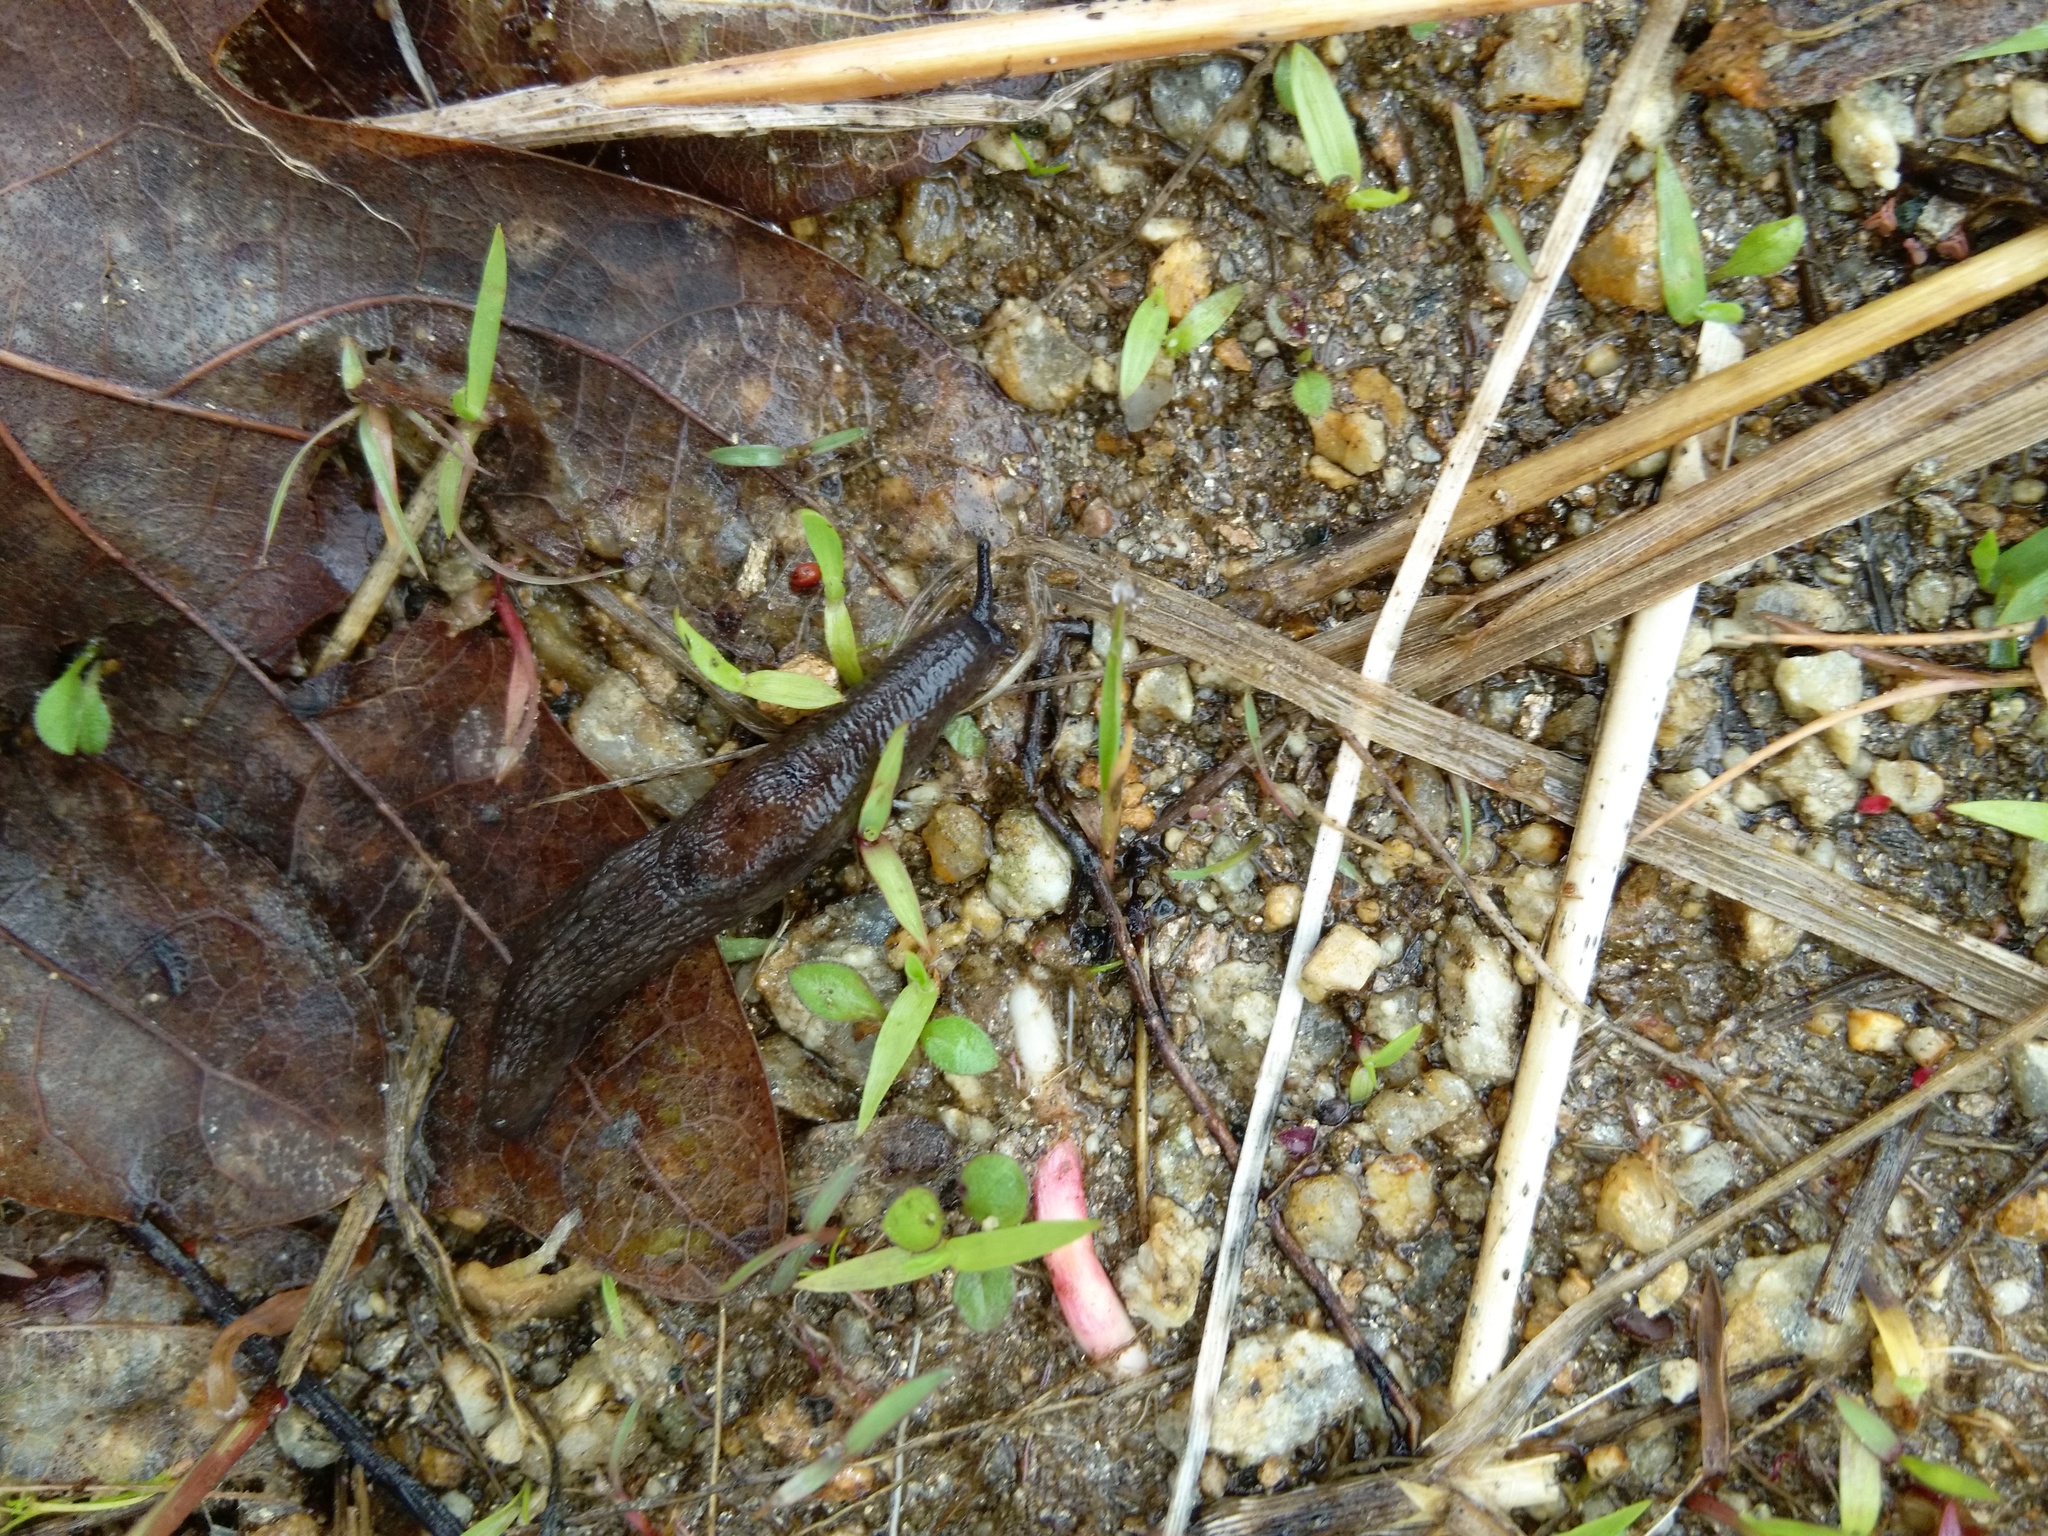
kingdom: Animalia
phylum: Mollusca
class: Gastropoda
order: Stylommatophora
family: Agriolimacidae
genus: Deroceras
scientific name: Deroceras laeve
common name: Marsh slug
